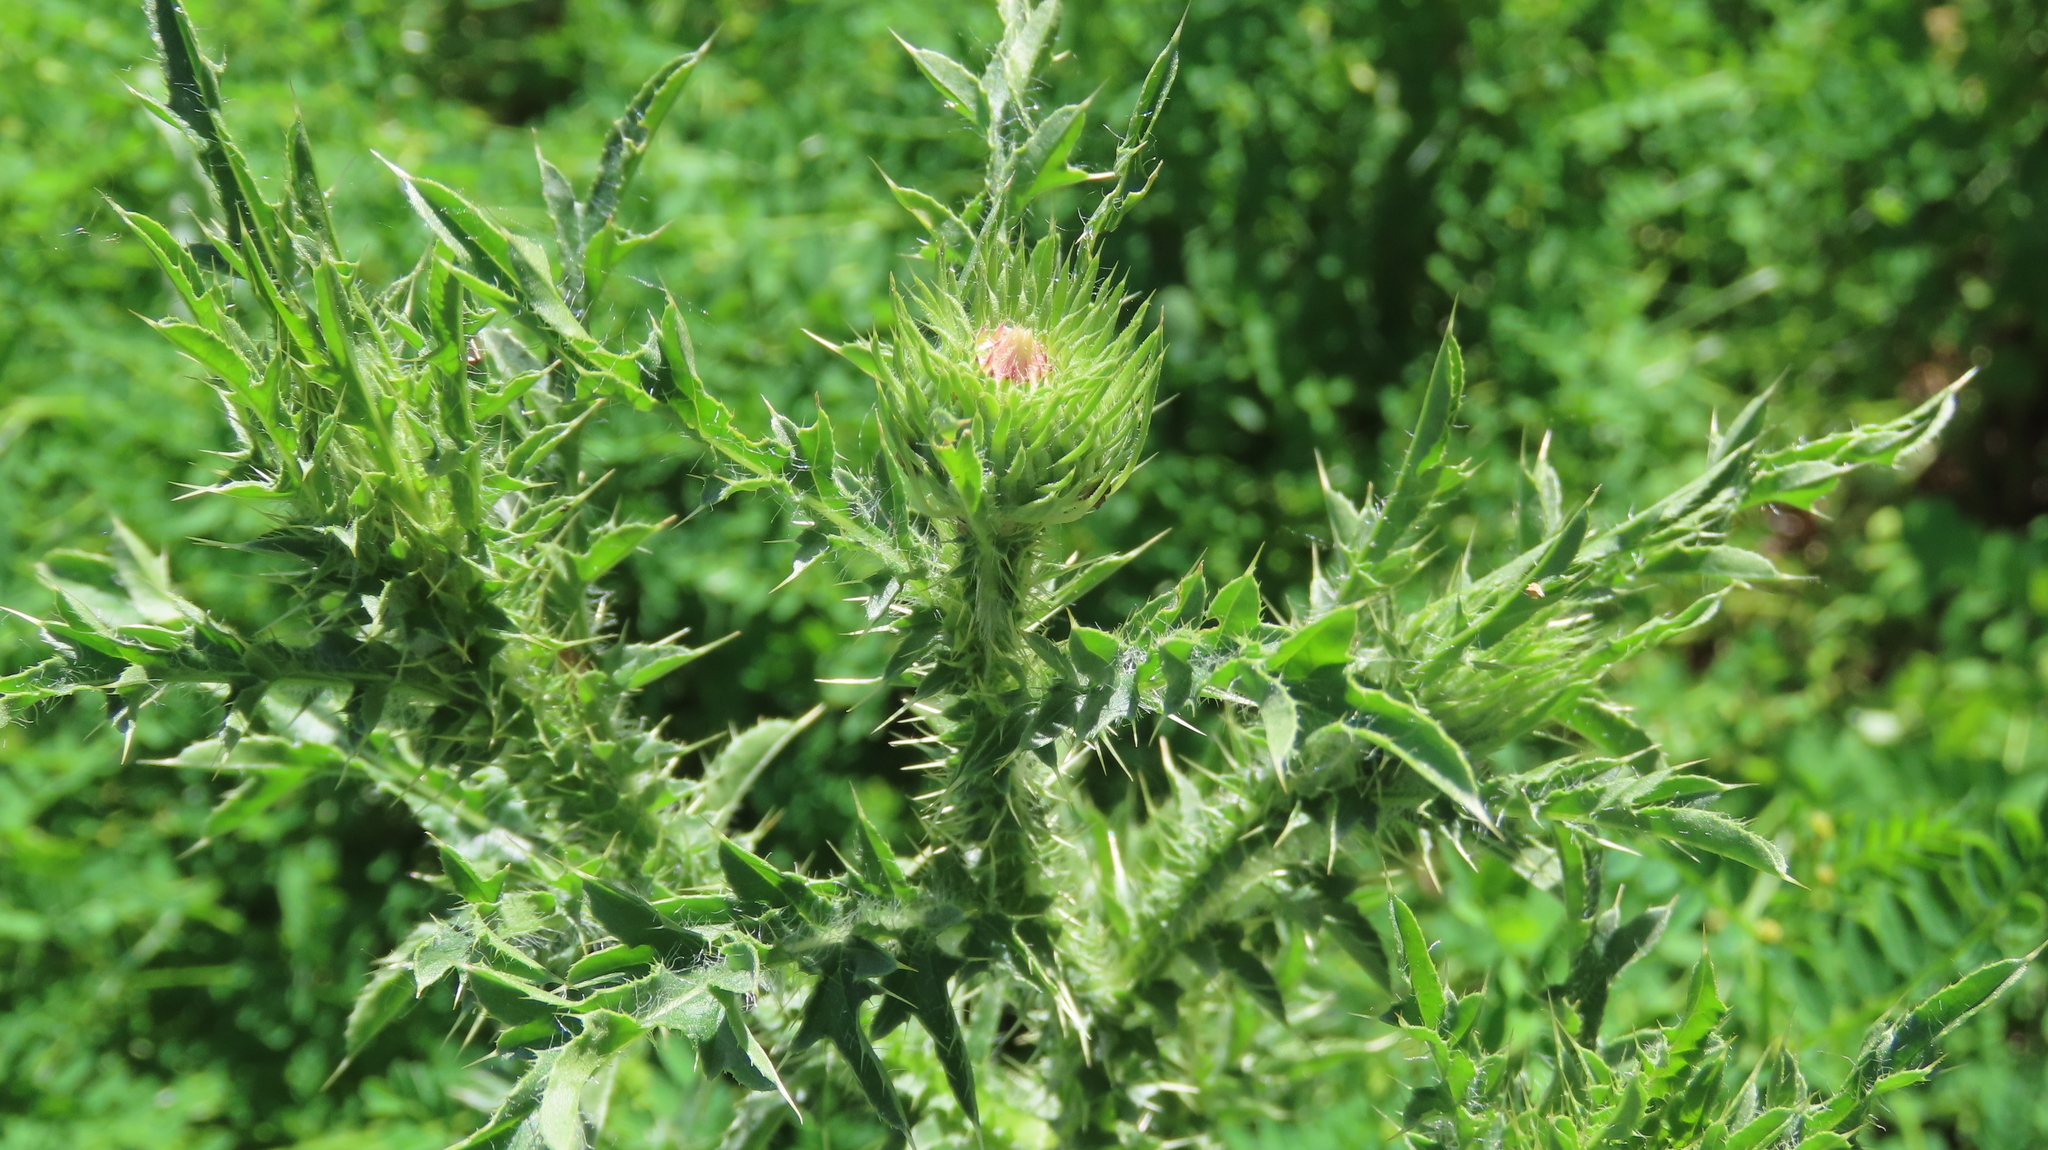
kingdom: Plantae
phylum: Tracheophyta
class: Magnoliopsida
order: Asterales
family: Asteraceae
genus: Carduus
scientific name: Carduus acanthoides
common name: Plumeless thistle
